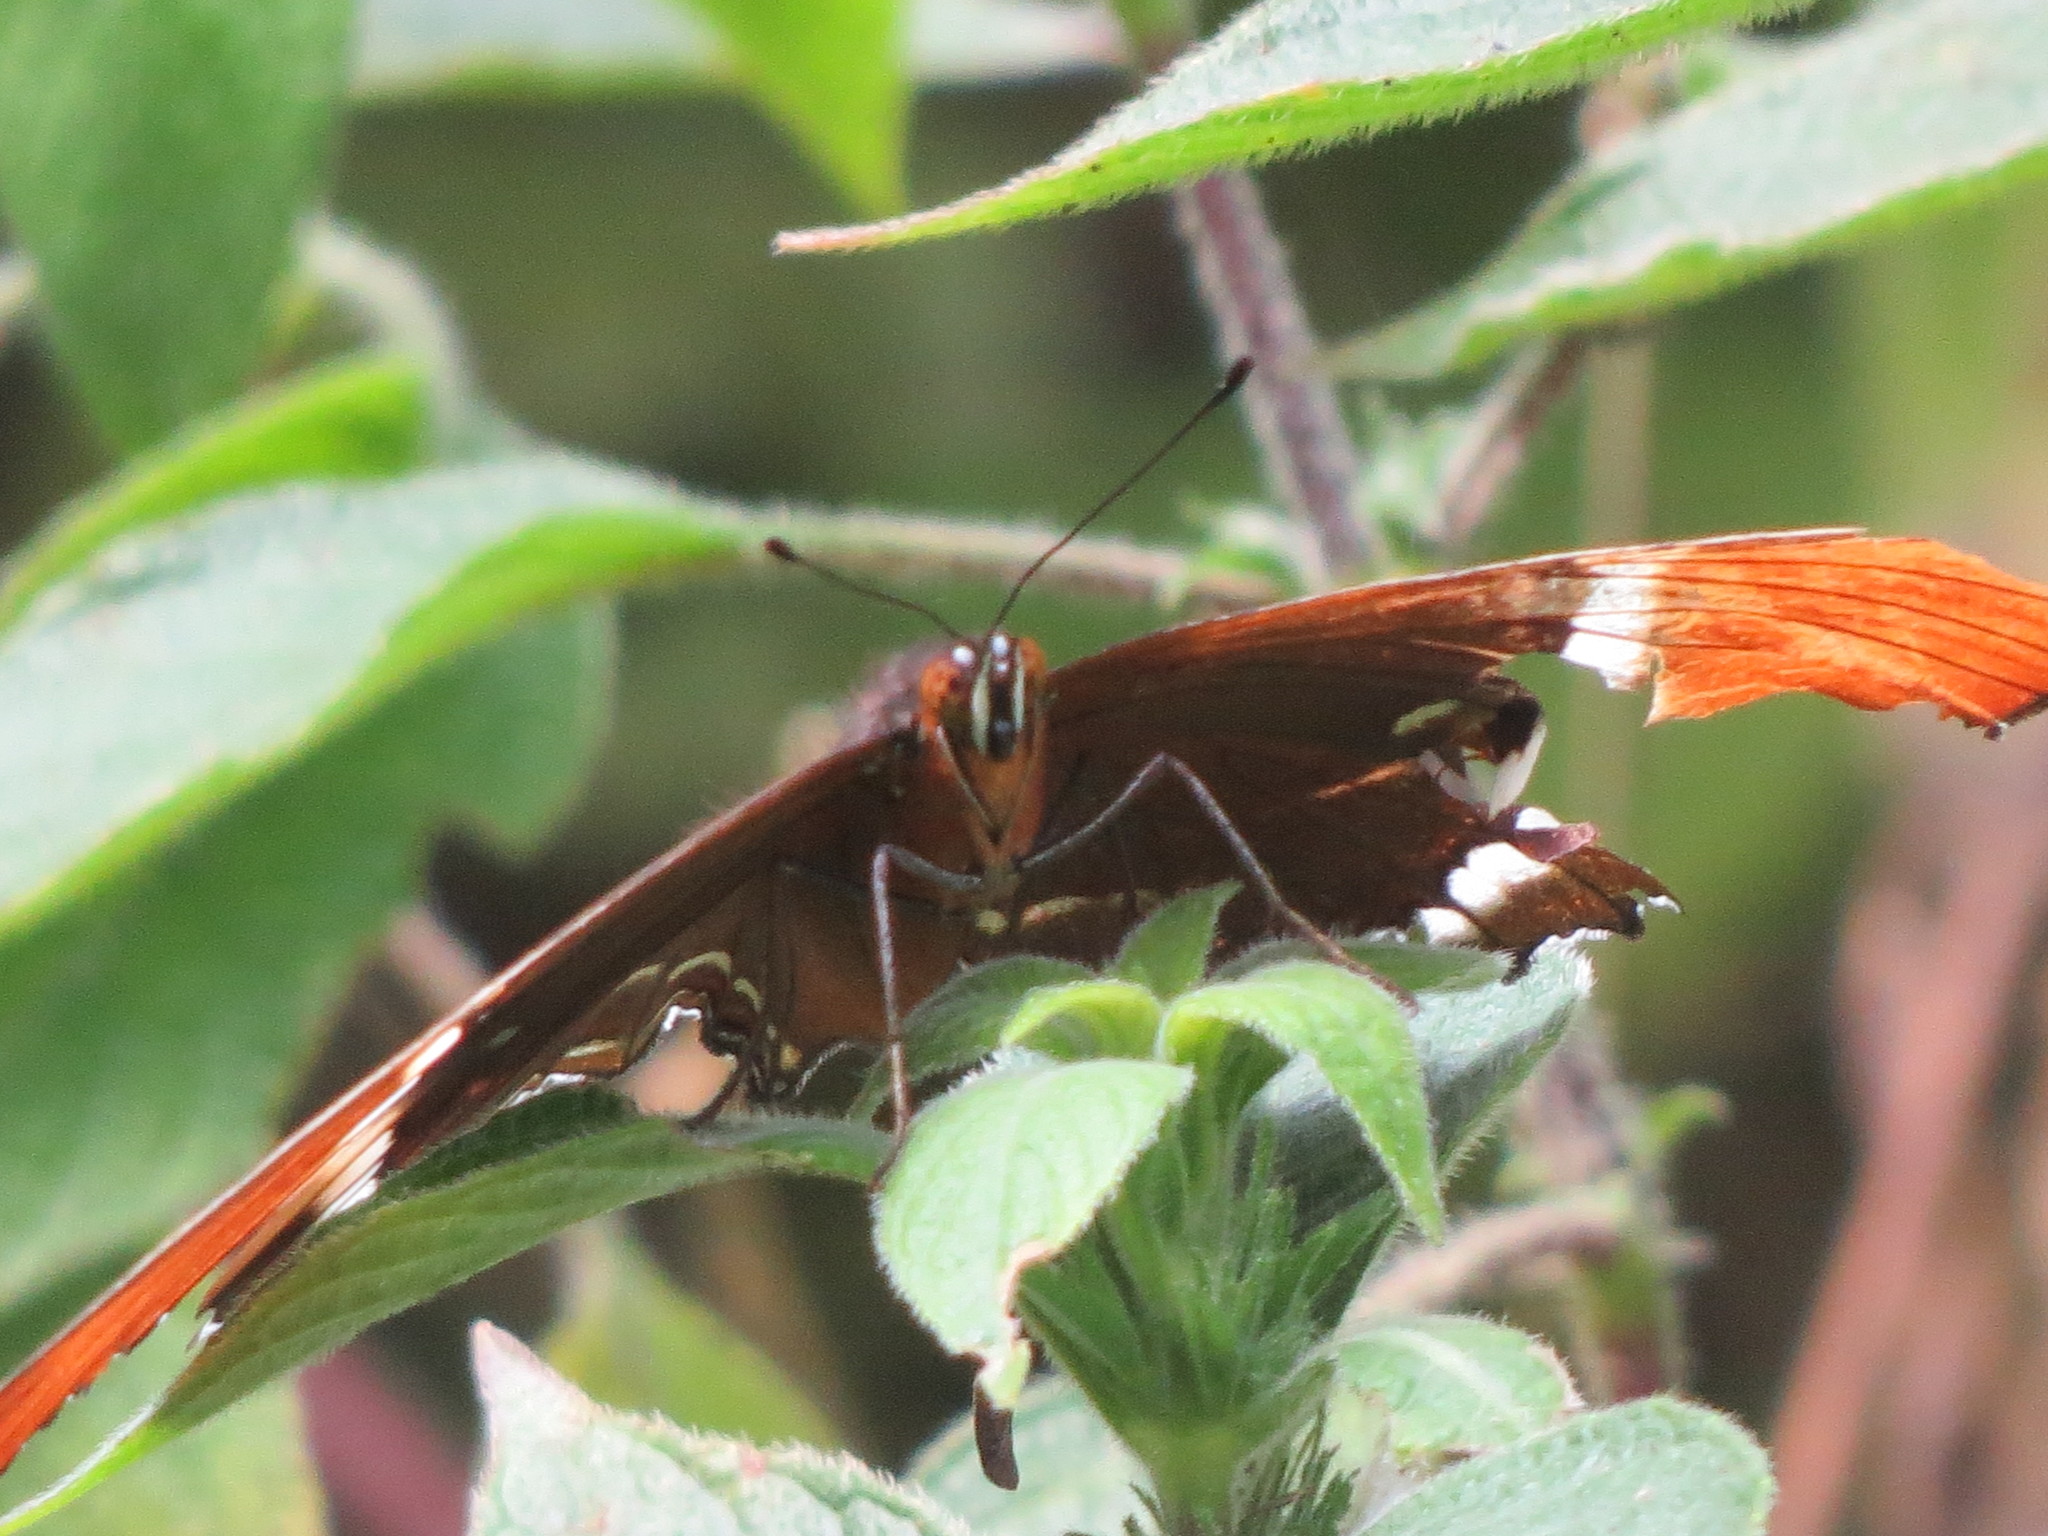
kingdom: Animalia
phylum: Arthropoda
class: Insecta
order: Lepidoptera
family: Nymphalidae
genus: Siproeta
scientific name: Siproeta epaphus
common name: Rusty-tipped page
